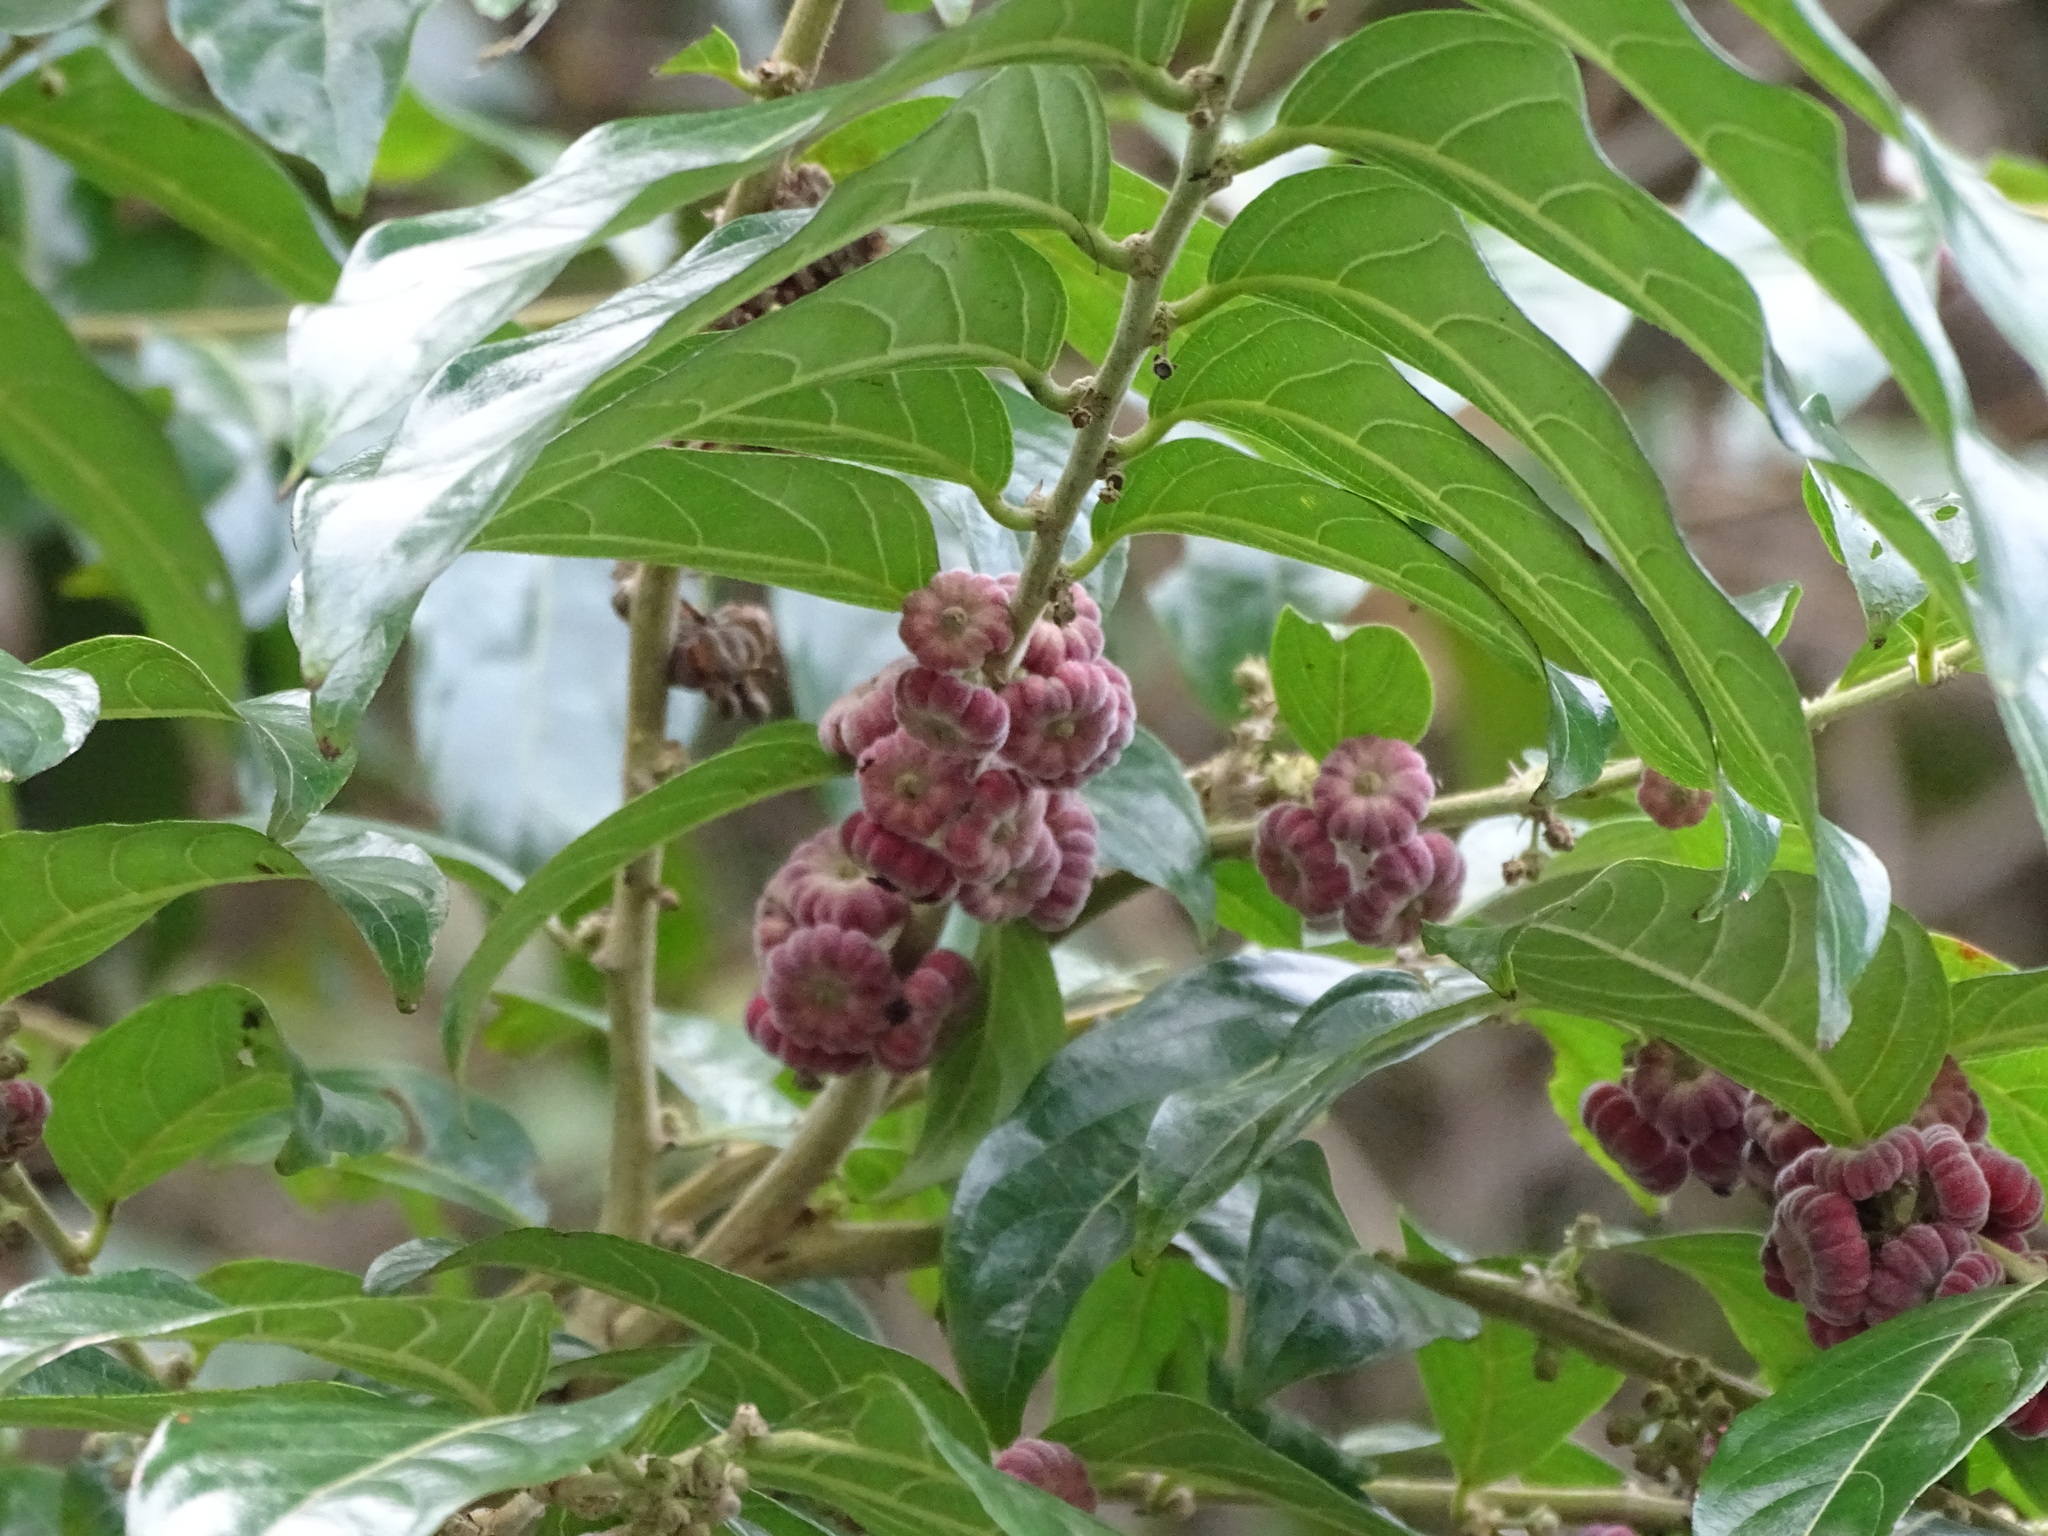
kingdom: Plantae
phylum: Tracheophyta
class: Magnoliopsida
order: Malpighiales
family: Phyllanthaceae
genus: Glochidion
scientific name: Glochidion philippicum
